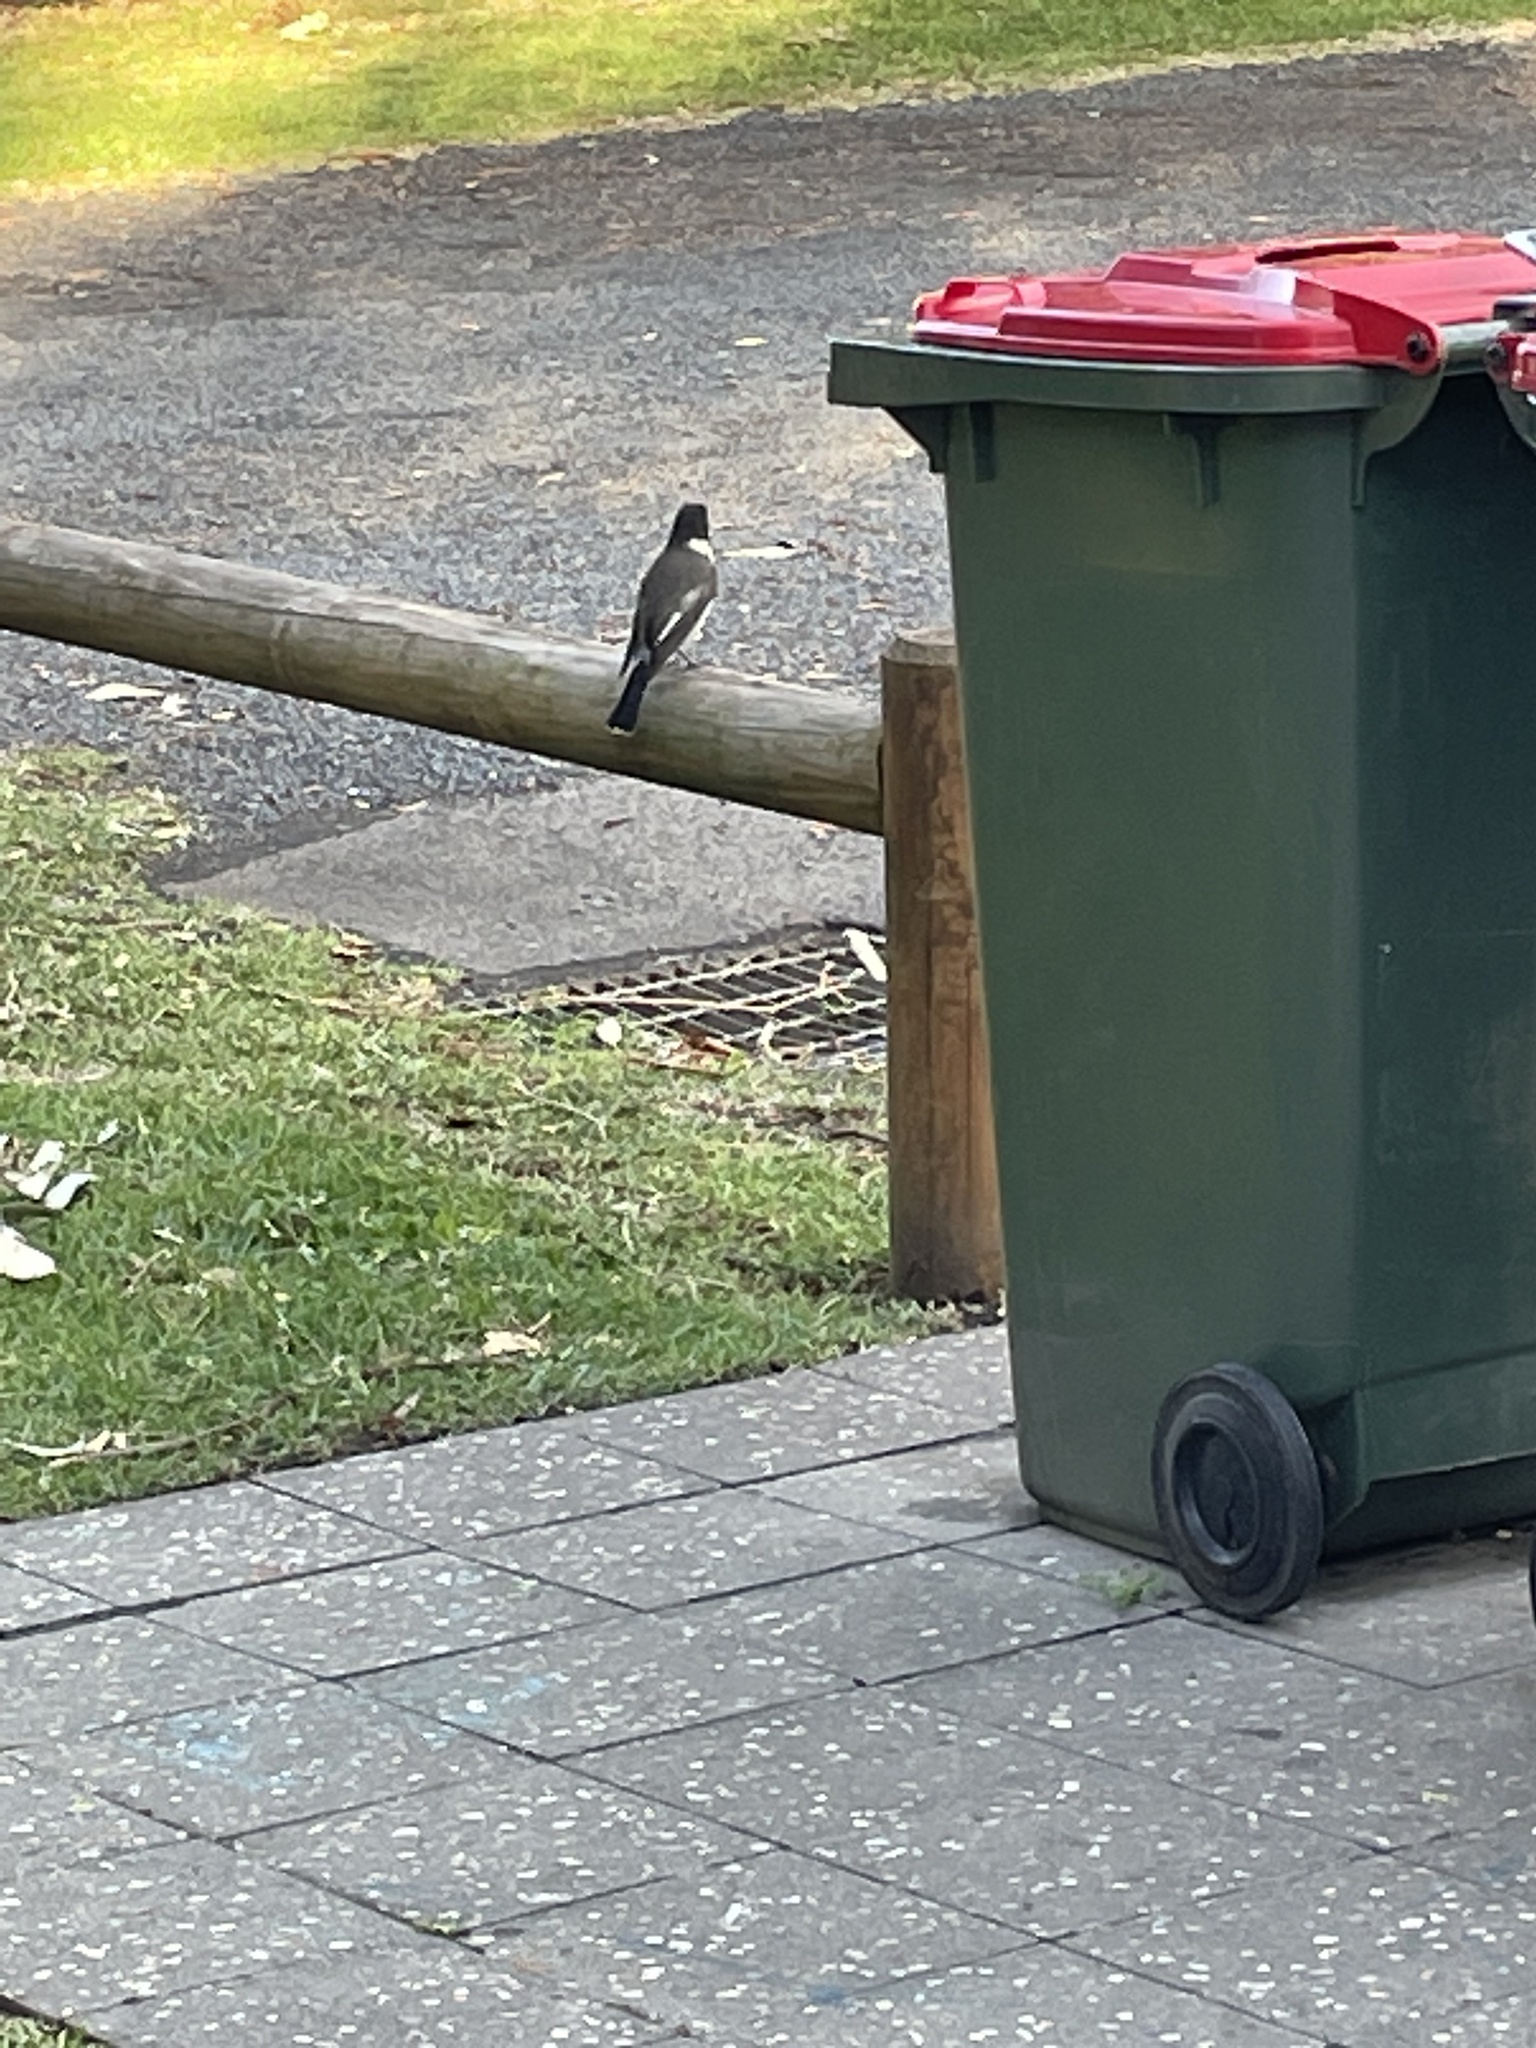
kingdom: Animalia
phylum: Chordata
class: Aves
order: Passeriformes
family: Cracticidae
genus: Cracticus
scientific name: Cracticus torquatus
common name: Grey butcherbird
